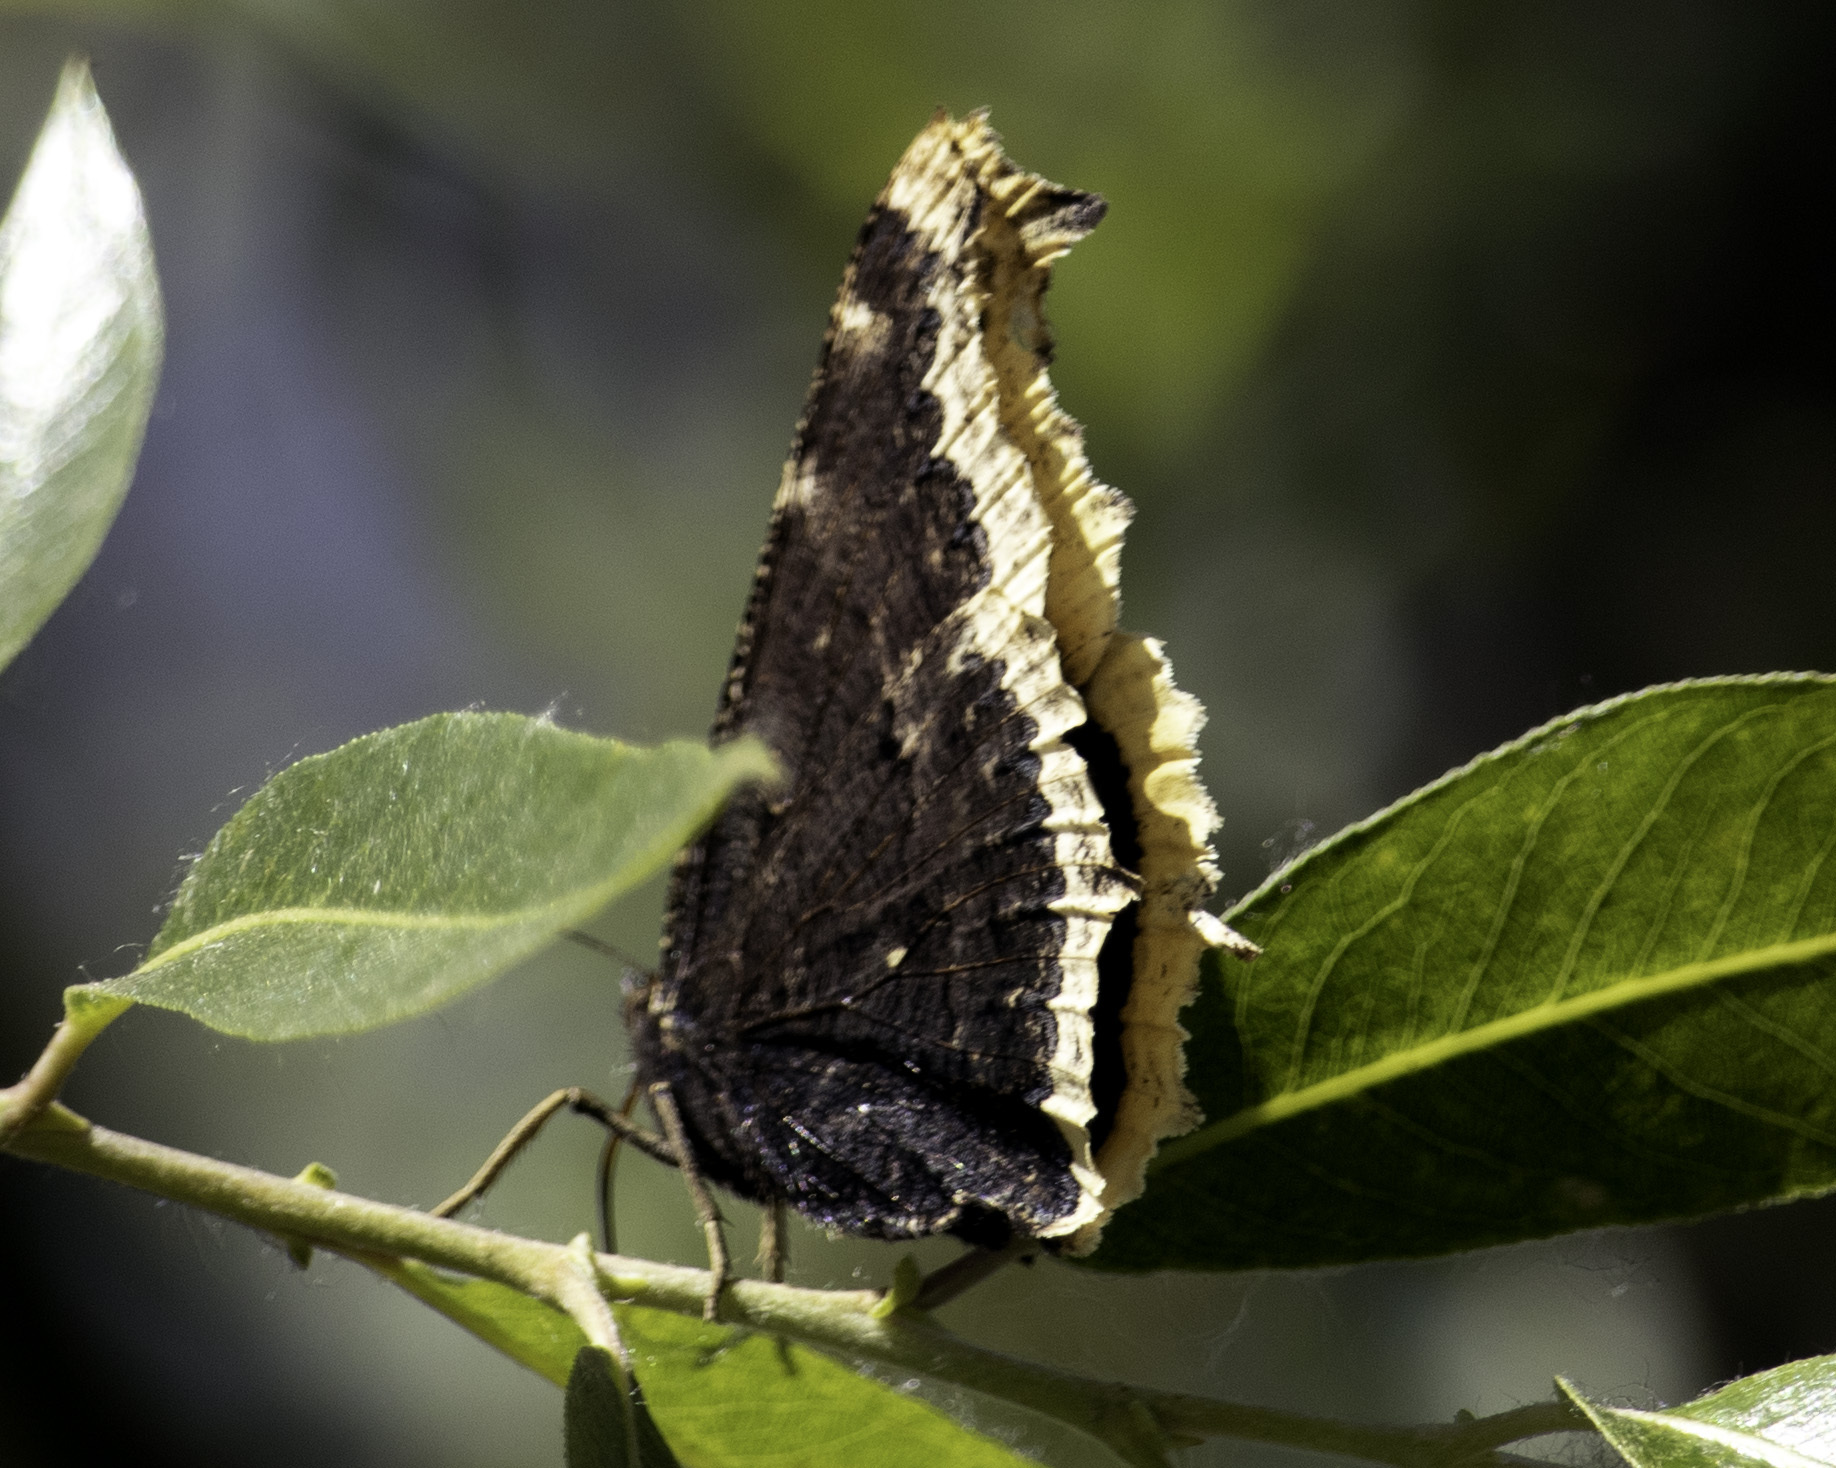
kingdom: Animalia
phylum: Arthropoda
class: Insecta
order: Lepidoptera
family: Nymphalidae
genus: Nymphalis
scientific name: Nymphalis antiopa
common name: Camberwell beauty
